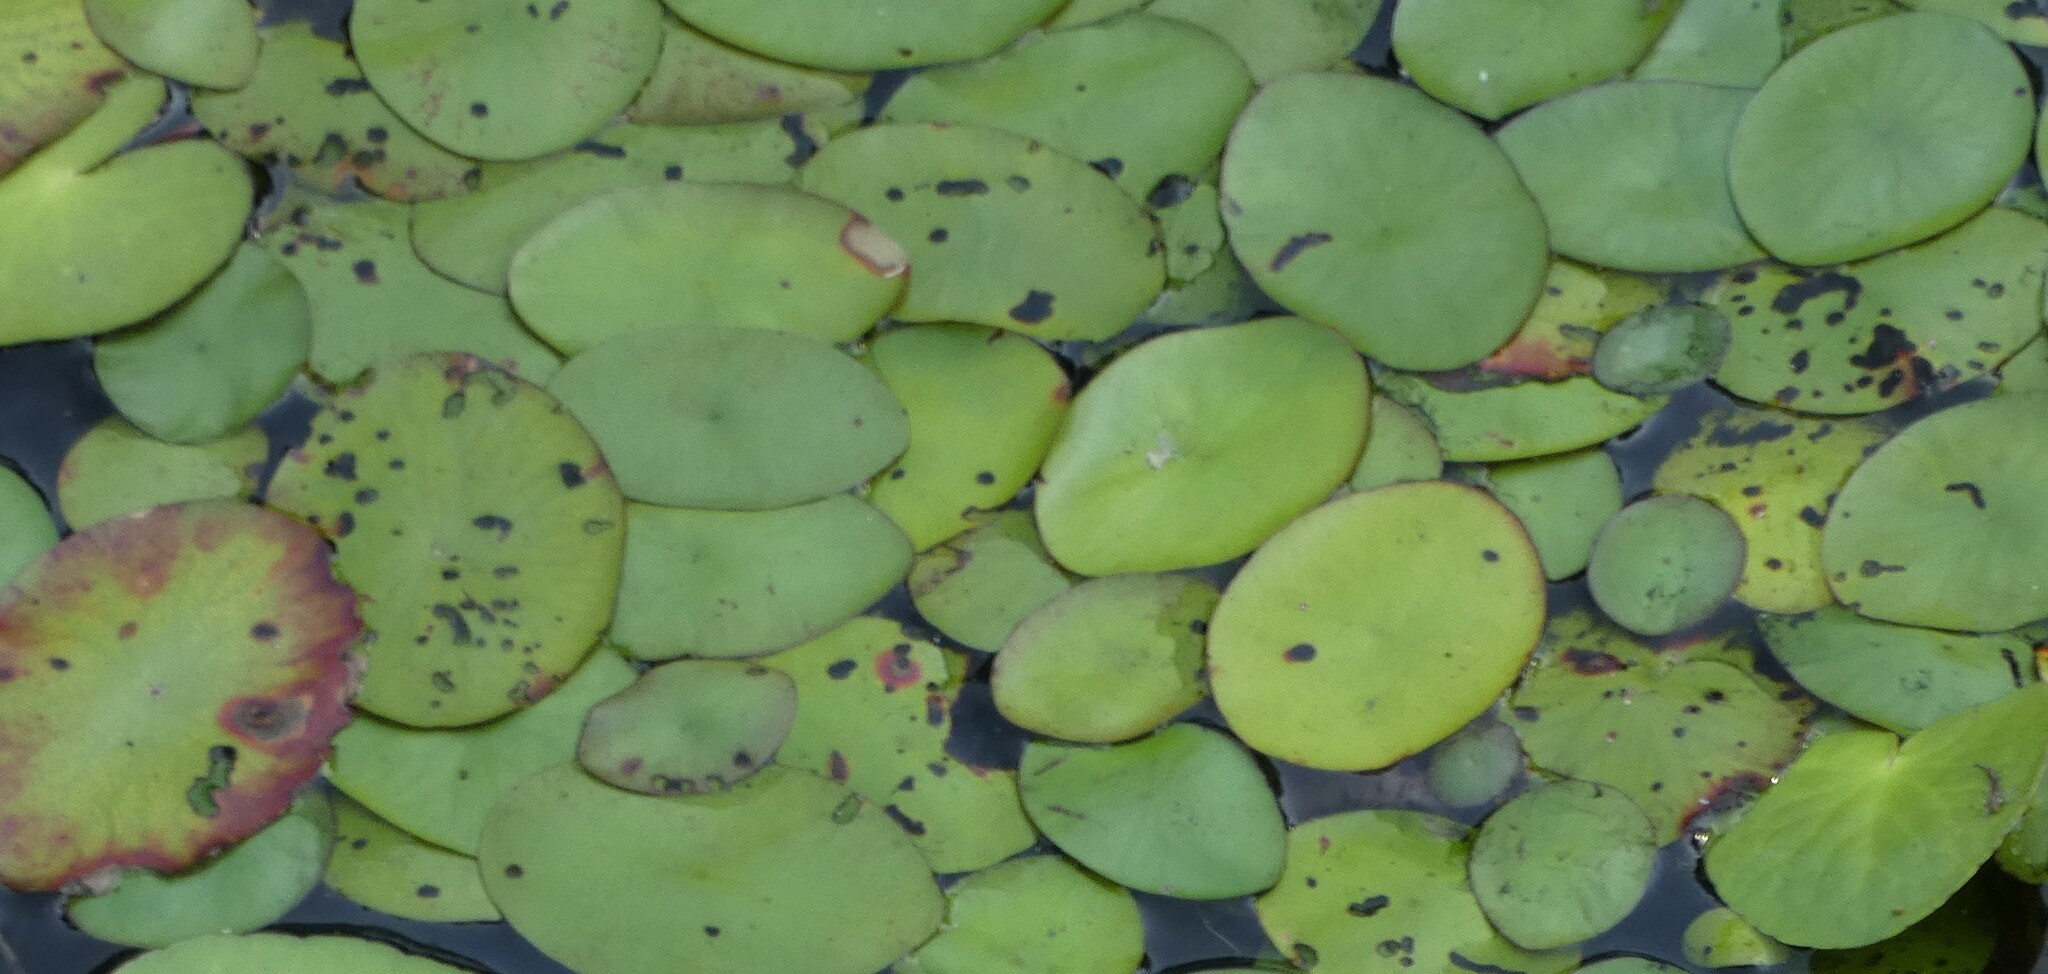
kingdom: Plantae
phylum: Tracheophyta
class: Magnoliopsida
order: Nymphaeales
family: Cabombaceae
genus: Brasenia
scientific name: Brasenia schreberi
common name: Water-shield
